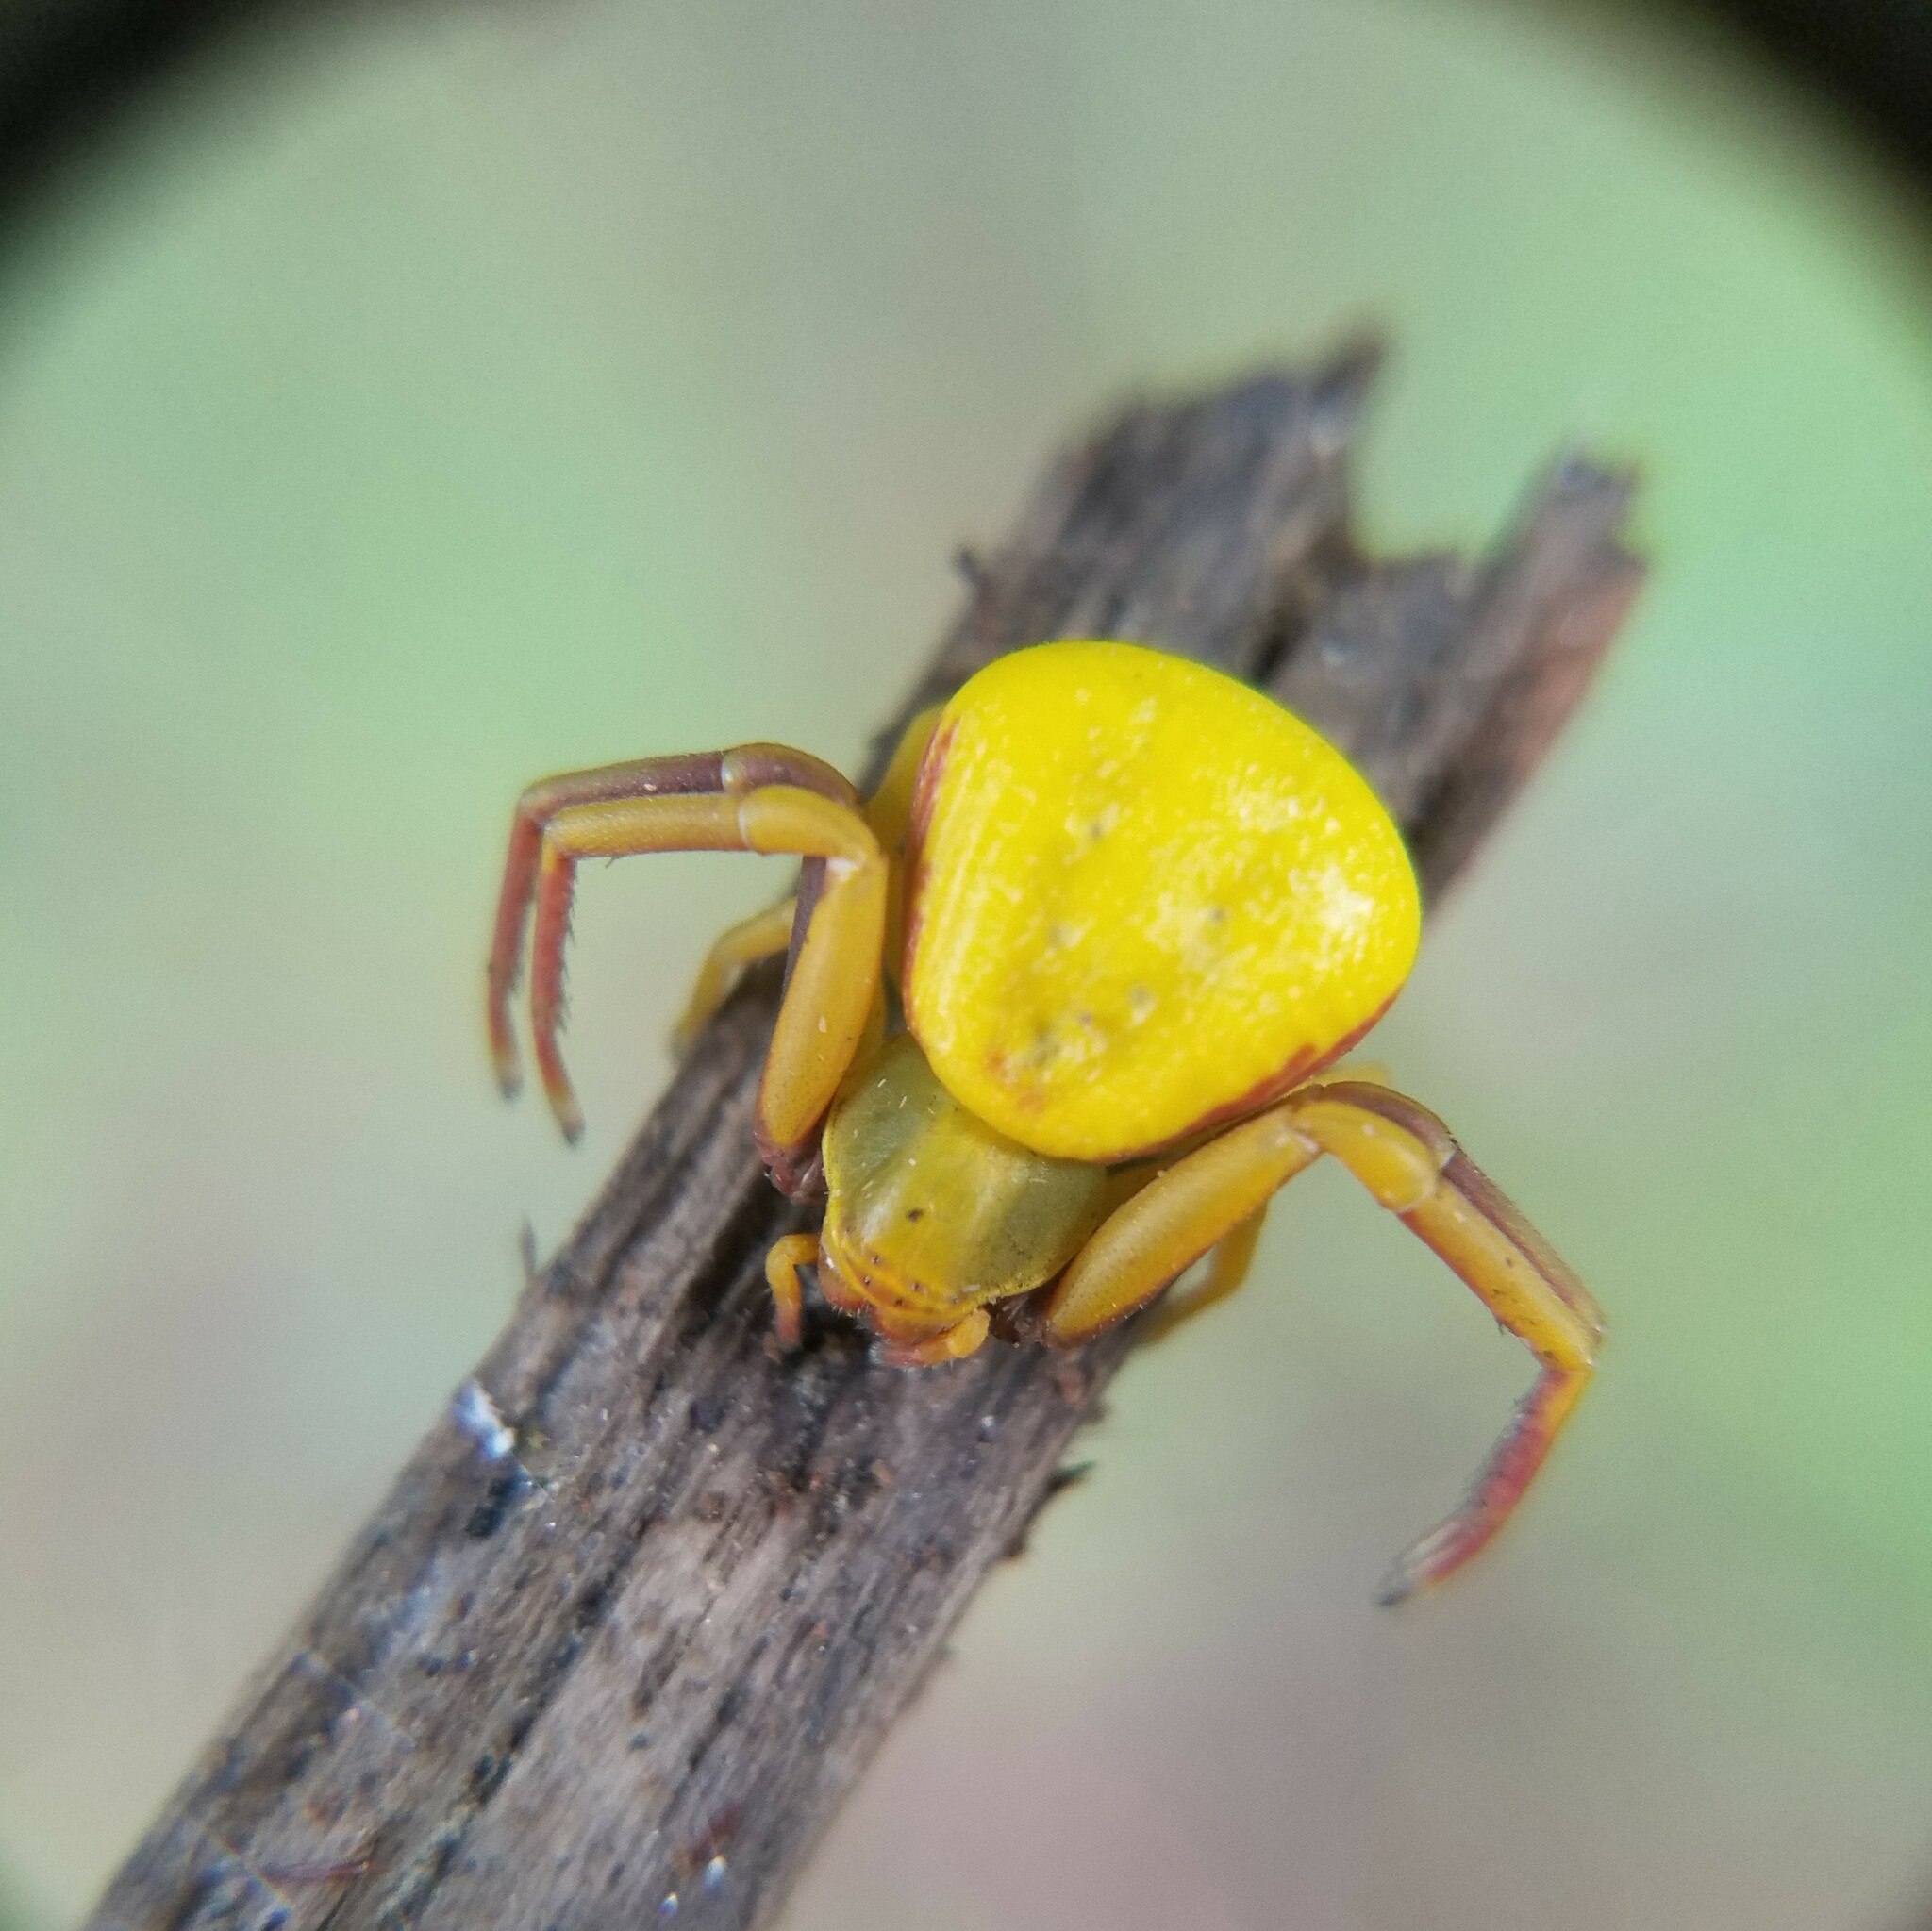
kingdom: Animalia
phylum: Arthropoda
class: Arachnida
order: Araneae
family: Thomisidae
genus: Misumenoides
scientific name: Misumenoides formosipes
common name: White-banded crab spider
